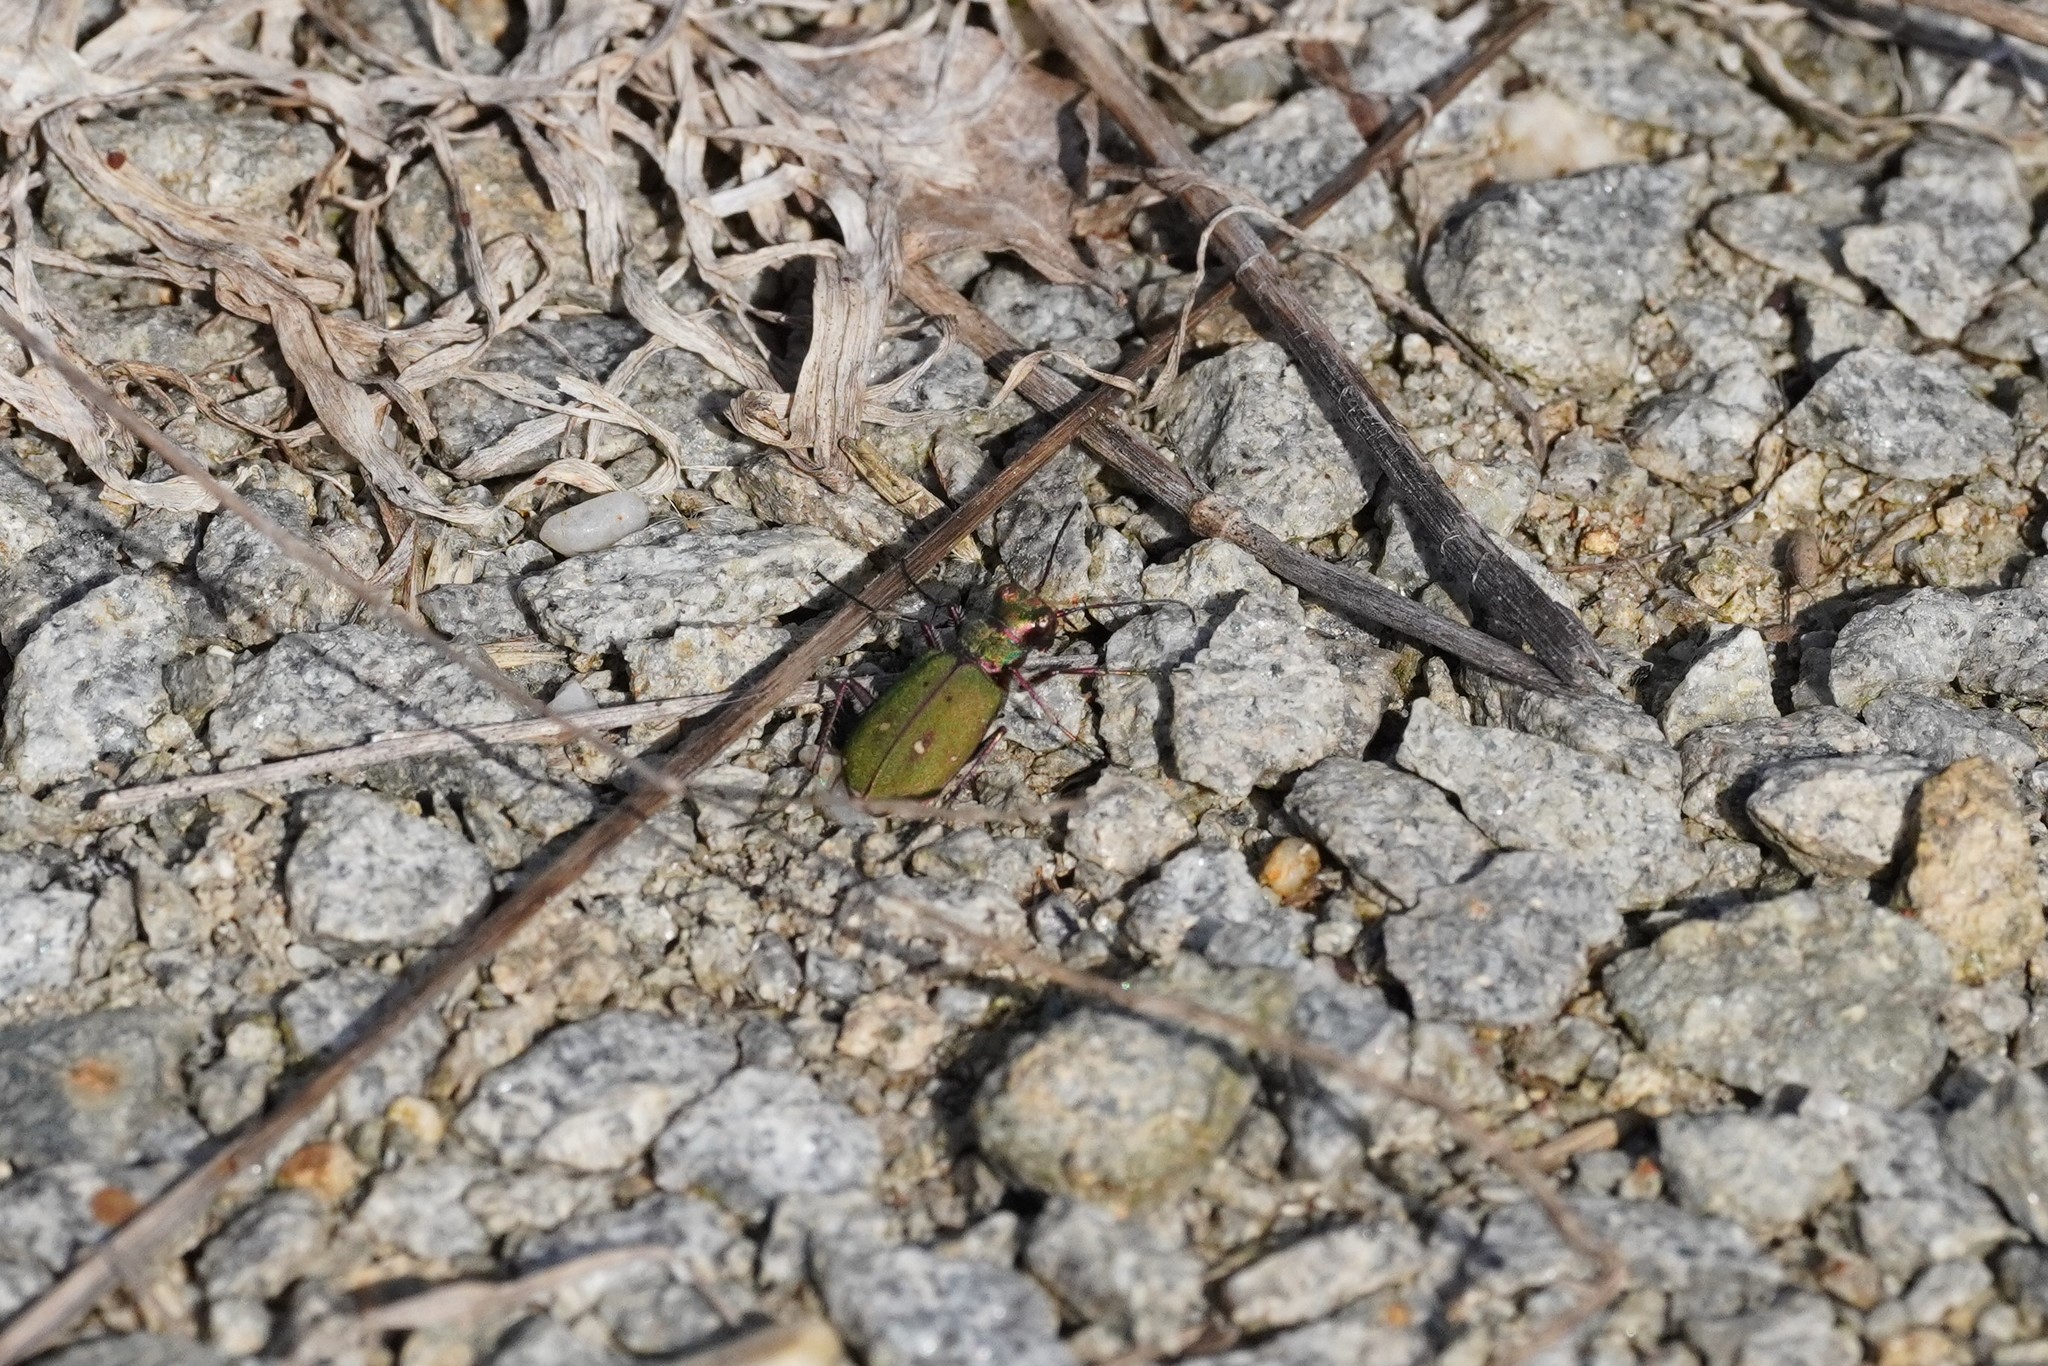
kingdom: Animalia
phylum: Arthropoda
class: Insecta
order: Coleoptera
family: Carabidae
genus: Cicindela
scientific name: Cicindela campestris
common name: Common tiger beetle
